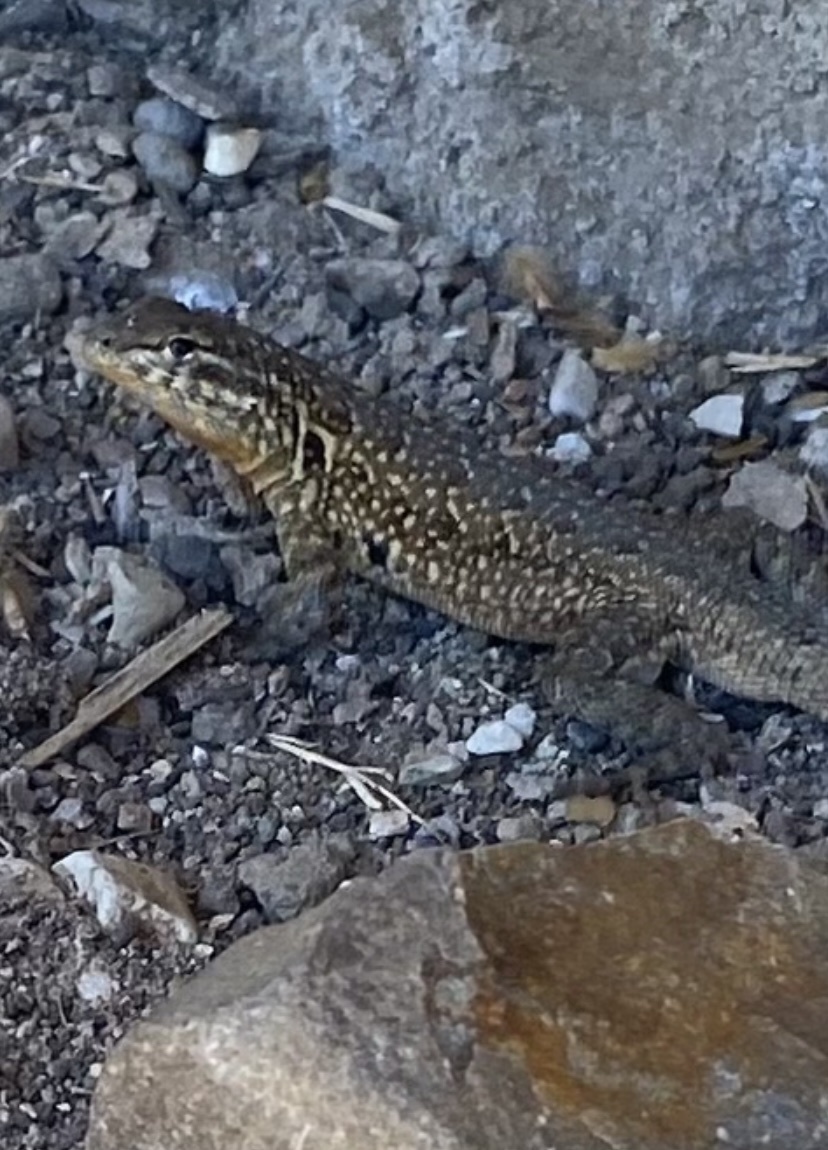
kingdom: Animalia
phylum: Chordata
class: Squamata
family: Phrynosomatidae
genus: Uta
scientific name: Uta stansburiana
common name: Side-blotched lizard
